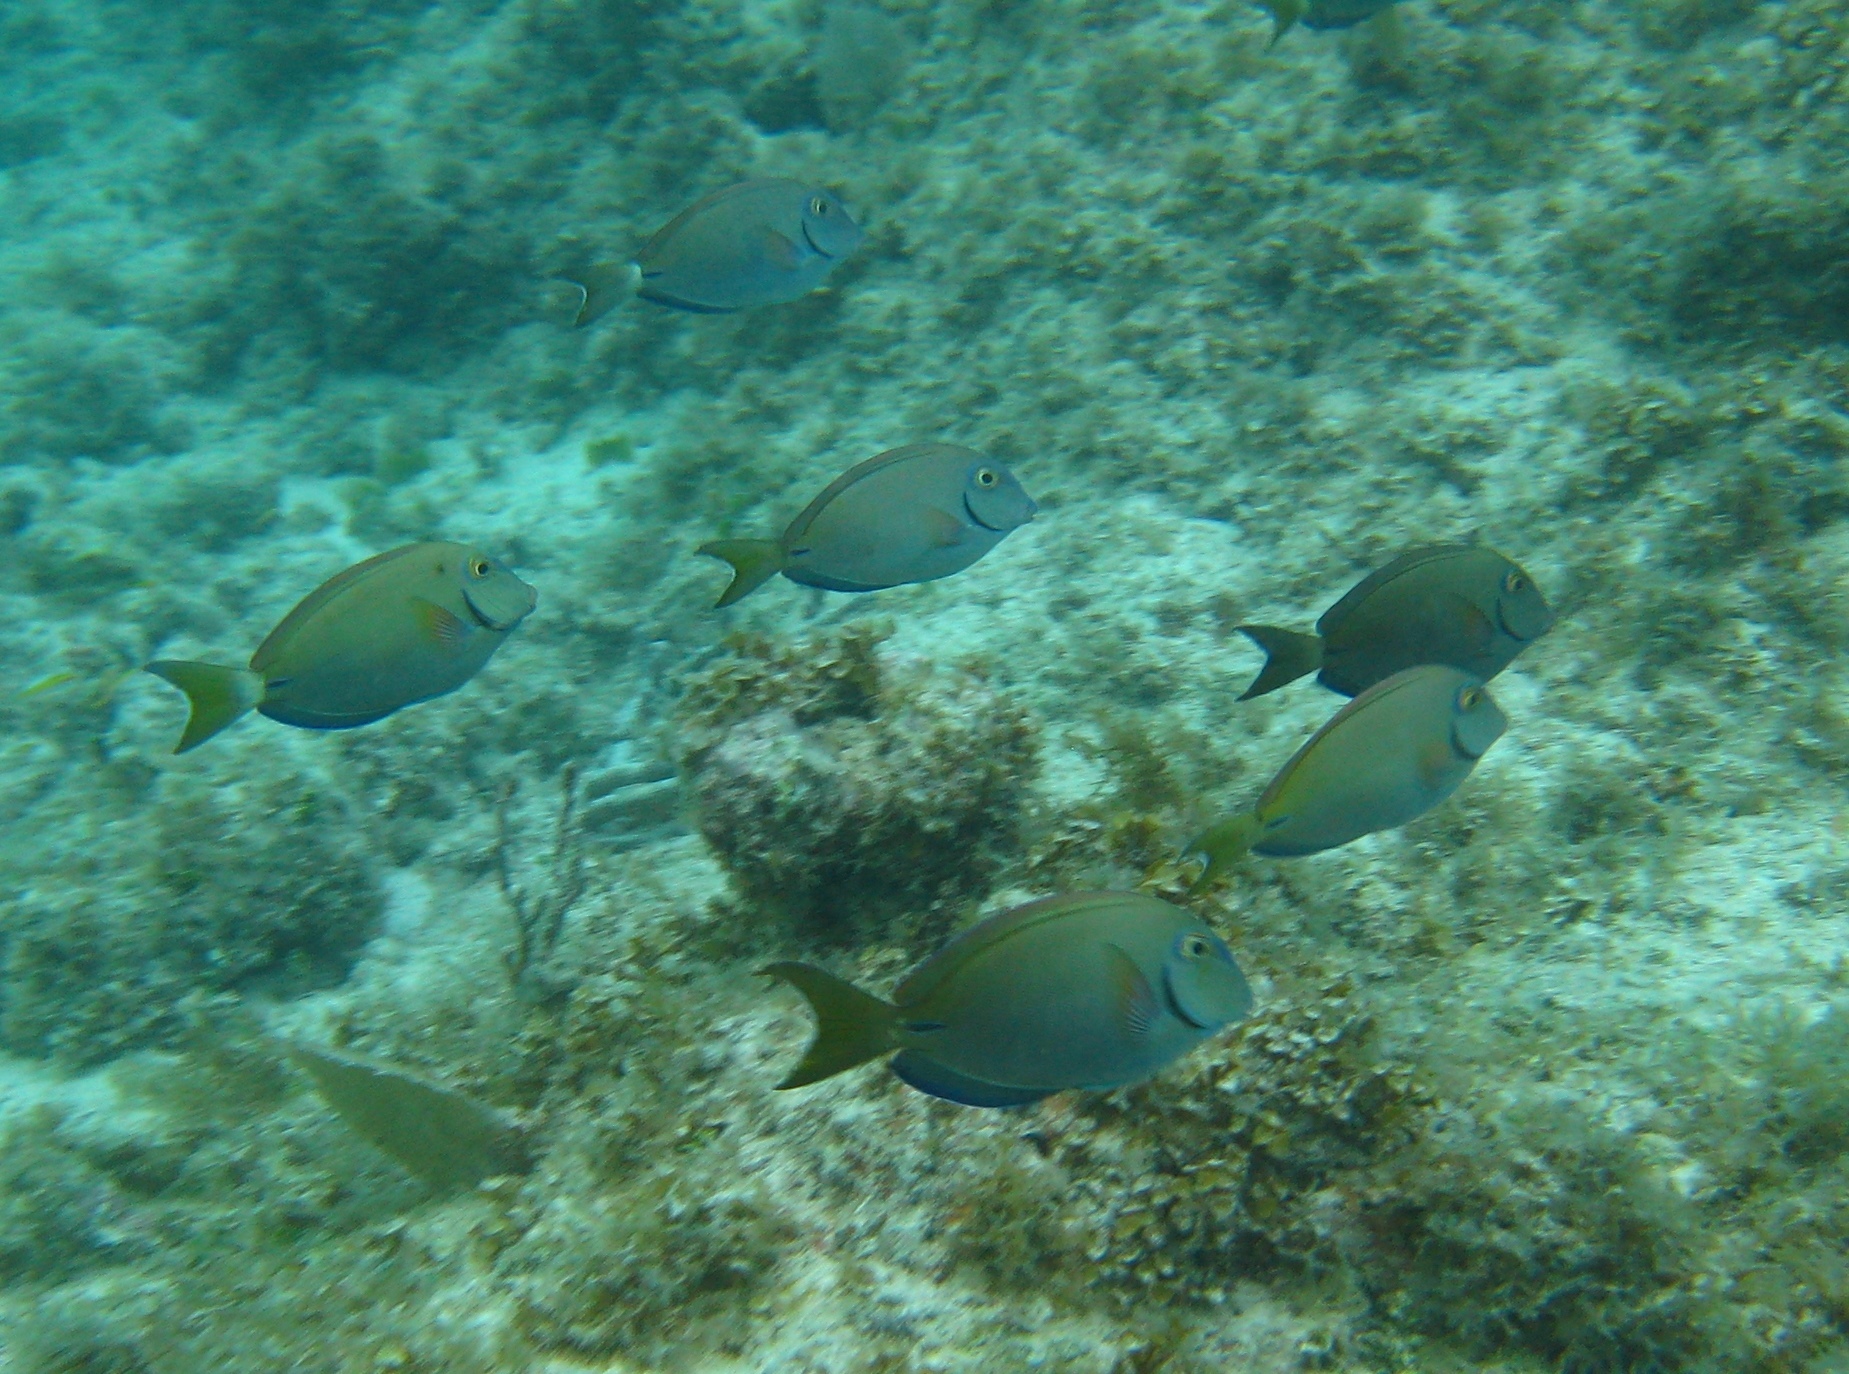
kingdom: Animalia
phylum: Chordata
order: Perciformes
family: Acanthuridae
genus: Acanthurus
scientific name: Acanthurus bahianus
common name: Ocean surgeon
